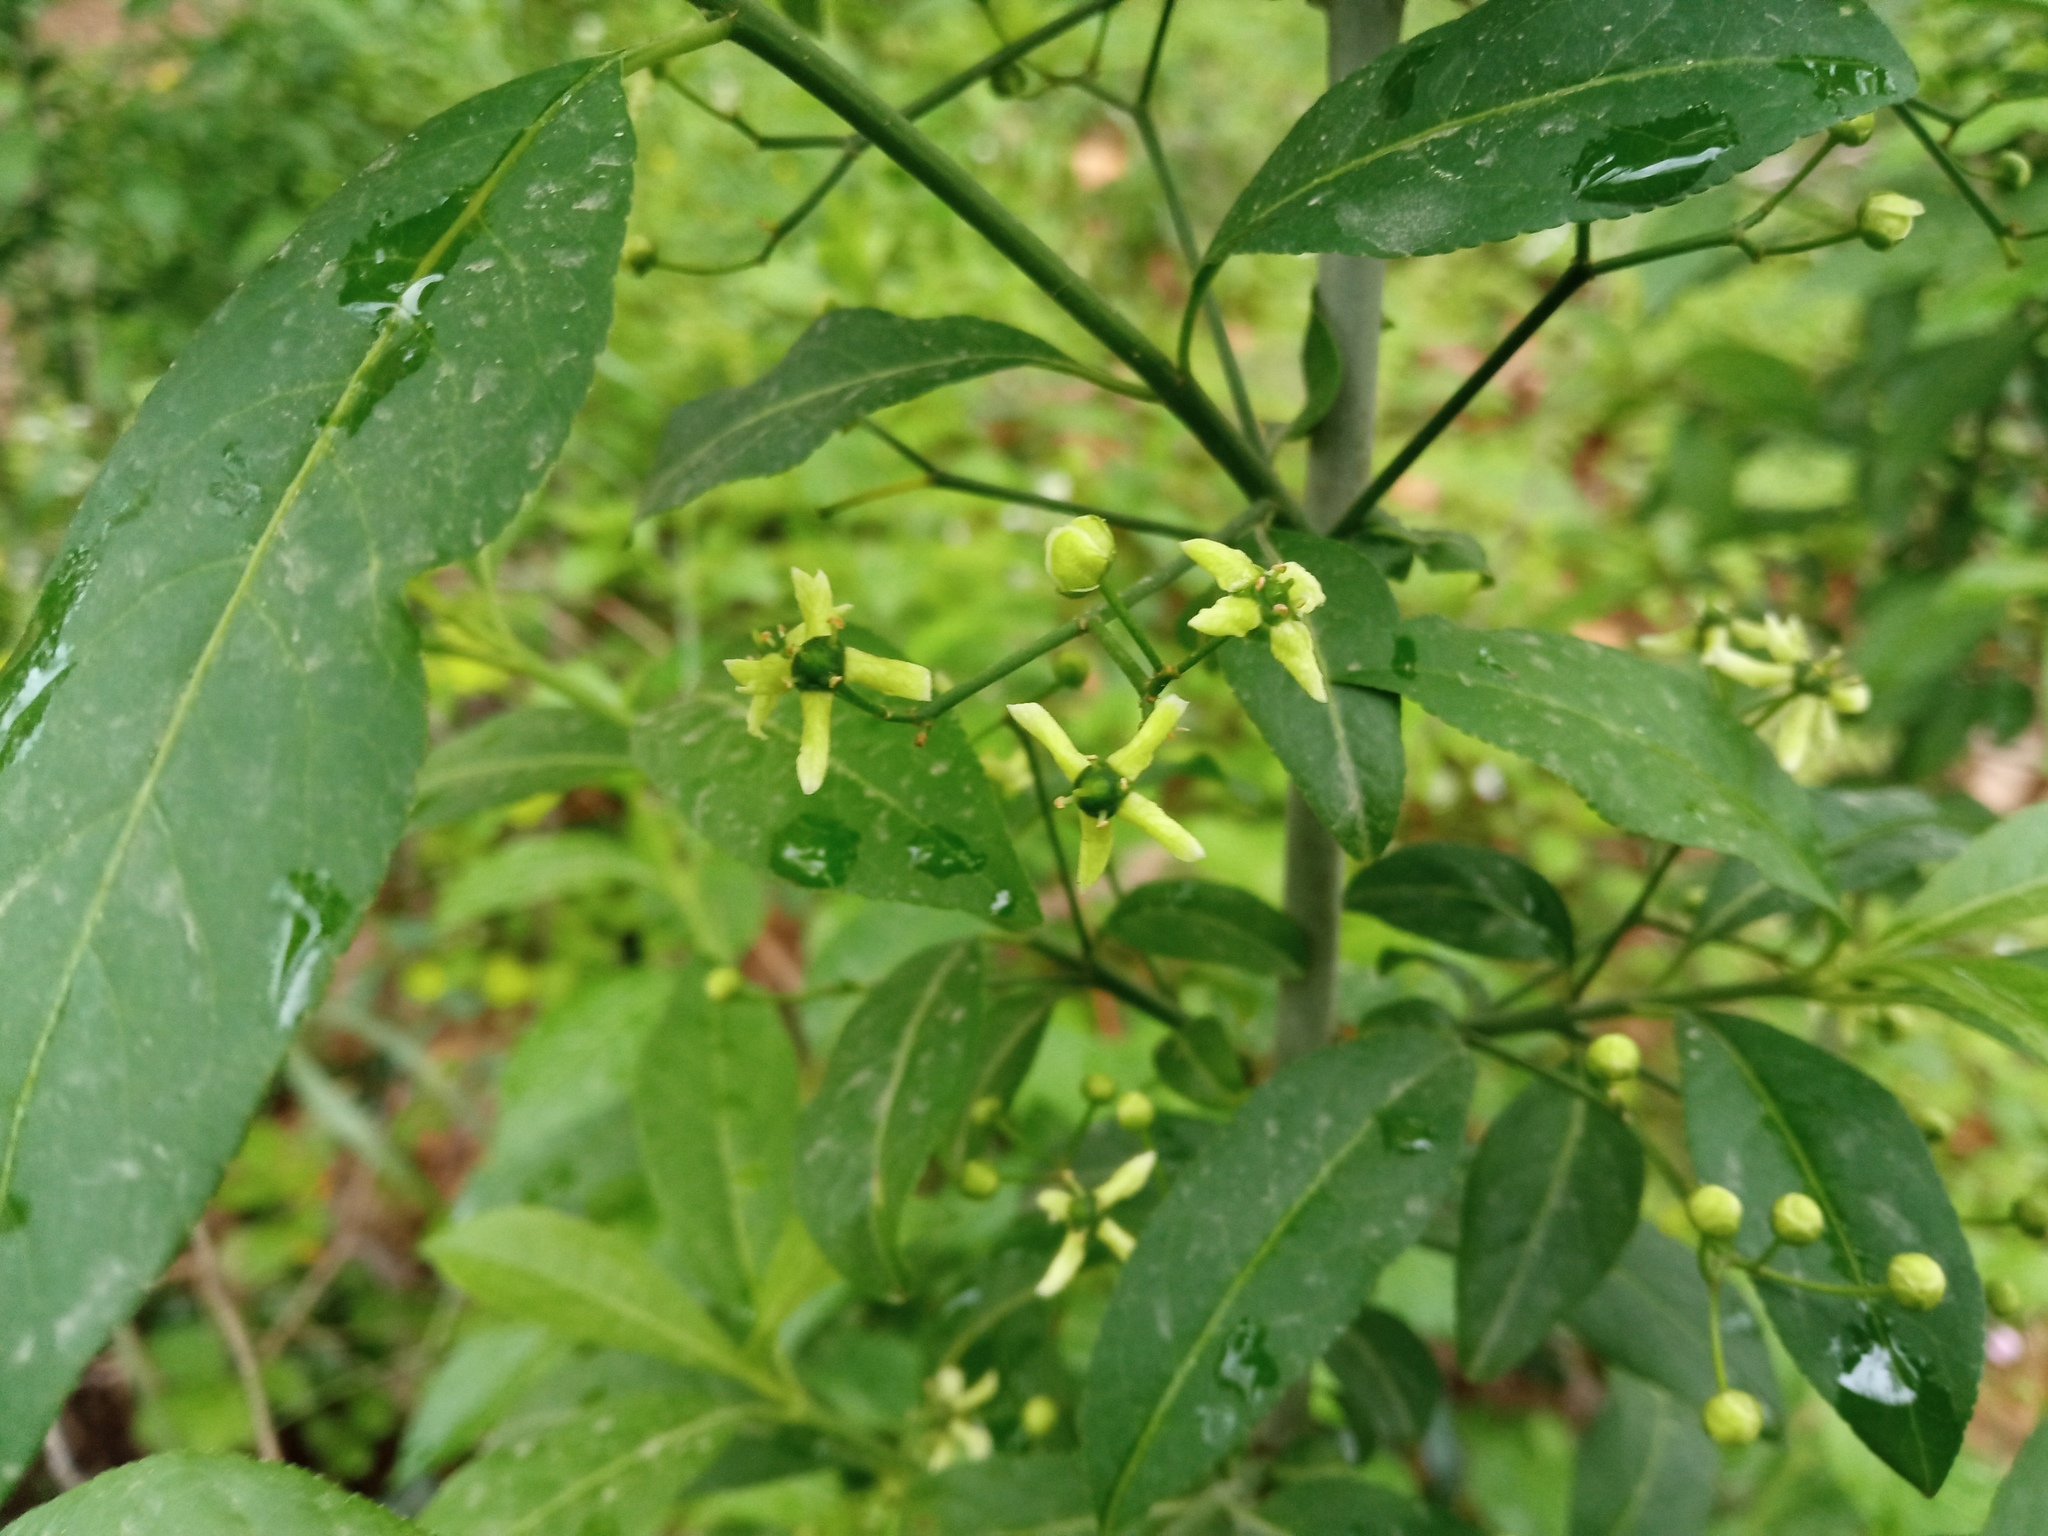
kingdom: Plantae
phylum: Tracheophyta
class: Magnoliopsida
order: Celastrales
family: Celastraceae
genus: Euonymus
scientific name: Euonymus europaeus
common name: Spindle
